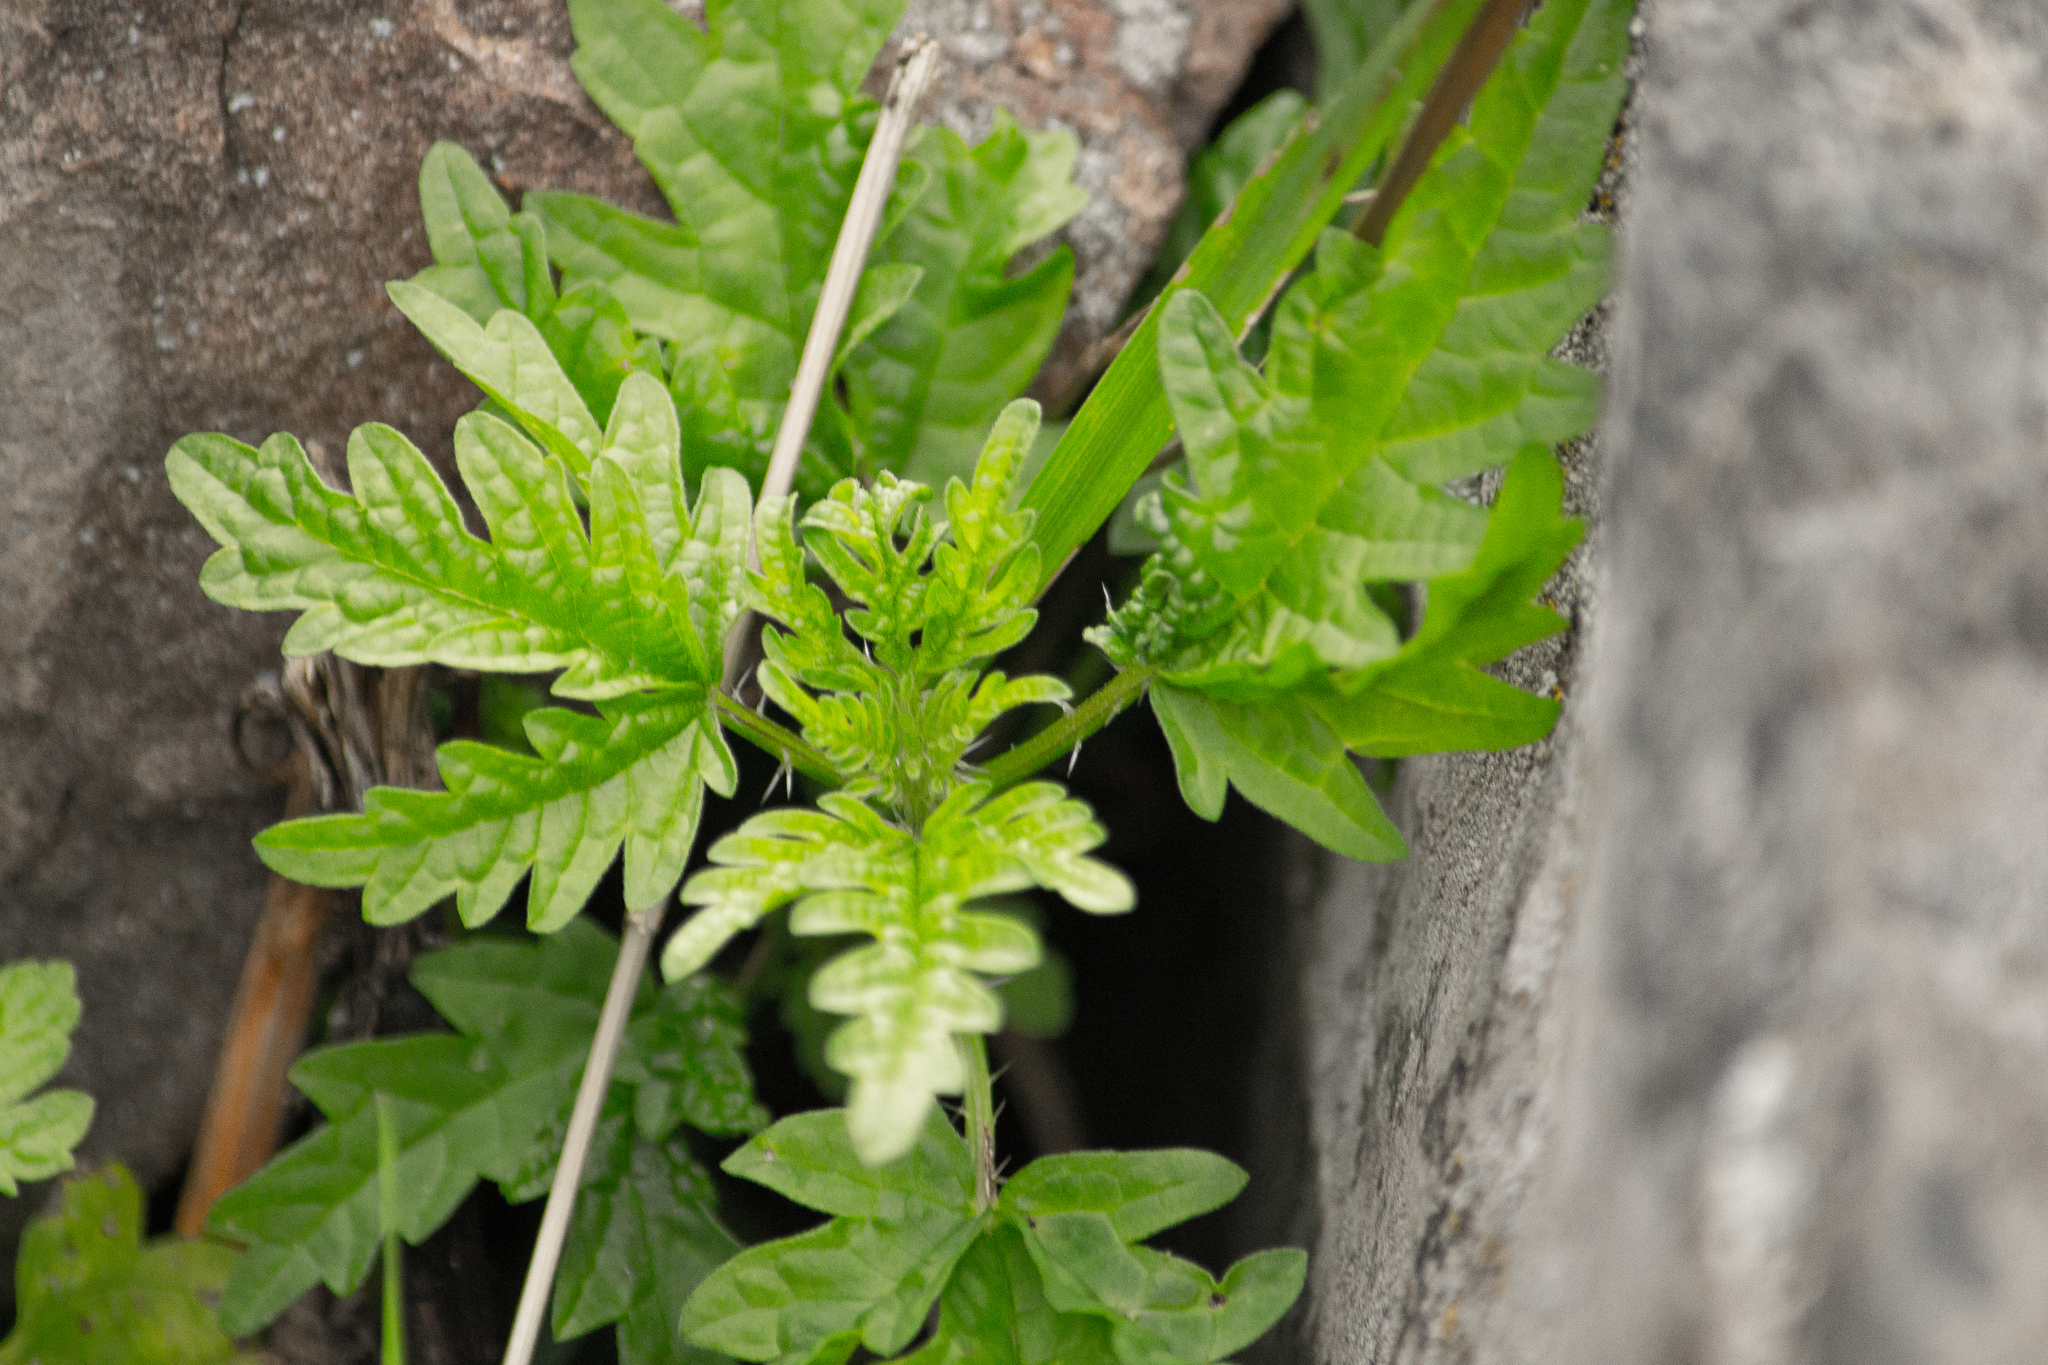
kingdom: Plantae
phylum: Tracheophyta
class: Magnoliopsida
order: Rosales
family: Urticaceae
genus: Urtica
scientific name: Urtica cannabina
